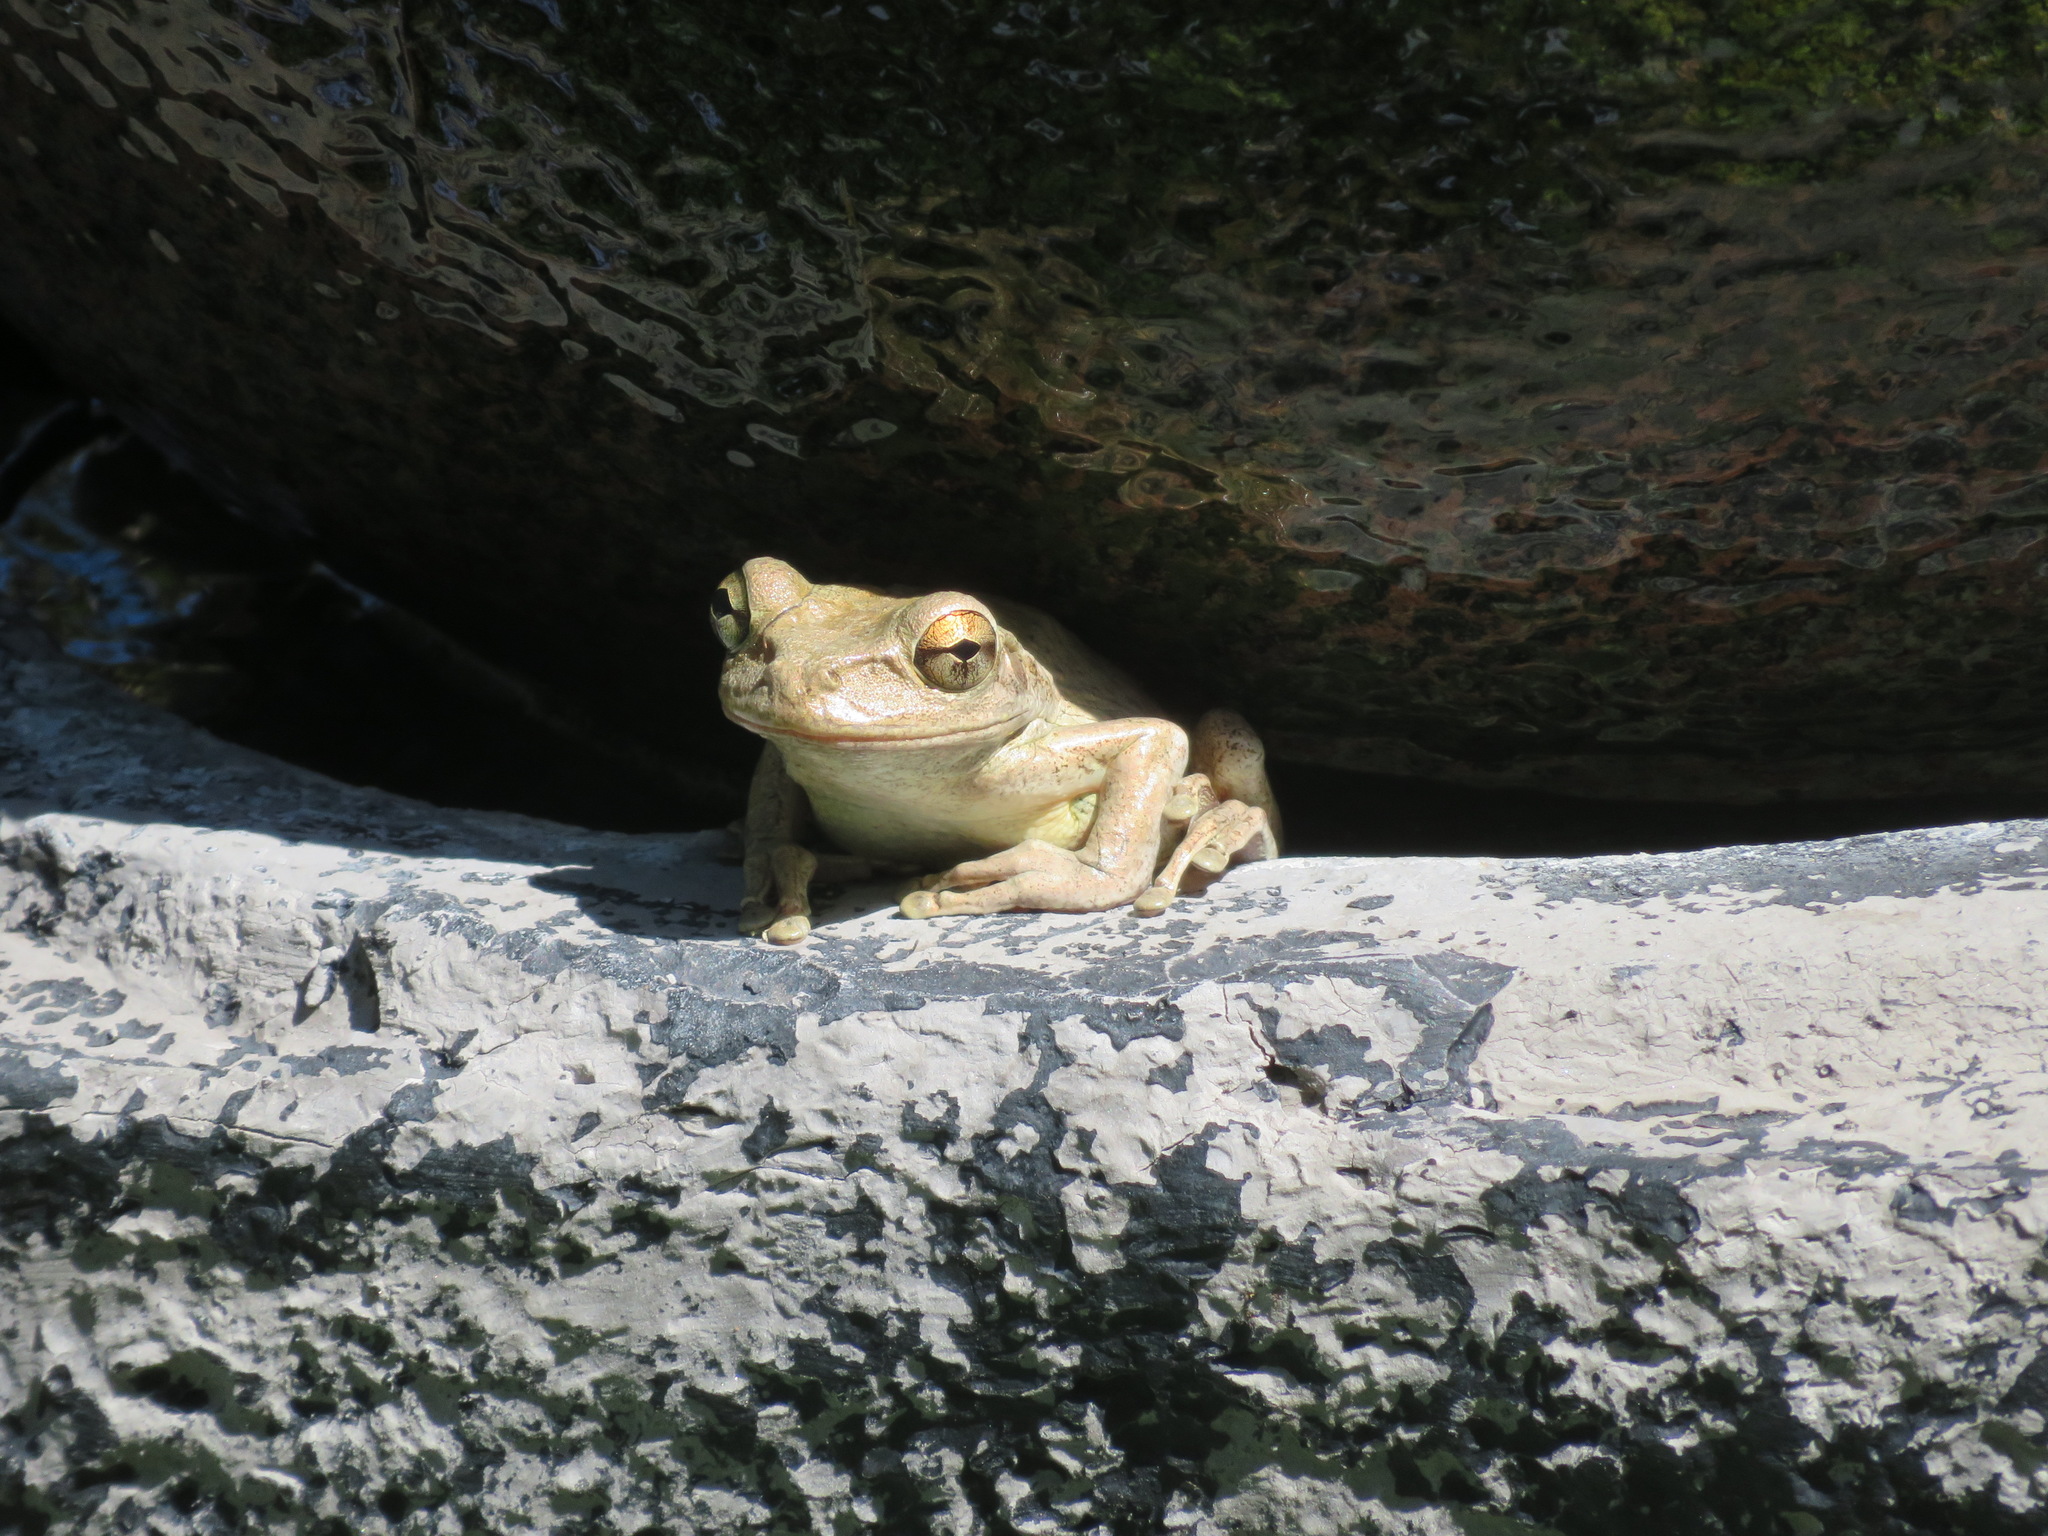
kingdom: Animalia
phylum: Chordata
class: Amphibia
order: Anura
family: Hylidae
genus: Osteopilus
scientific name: Osteopilus septentrionalis
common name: Cuban treefrog
